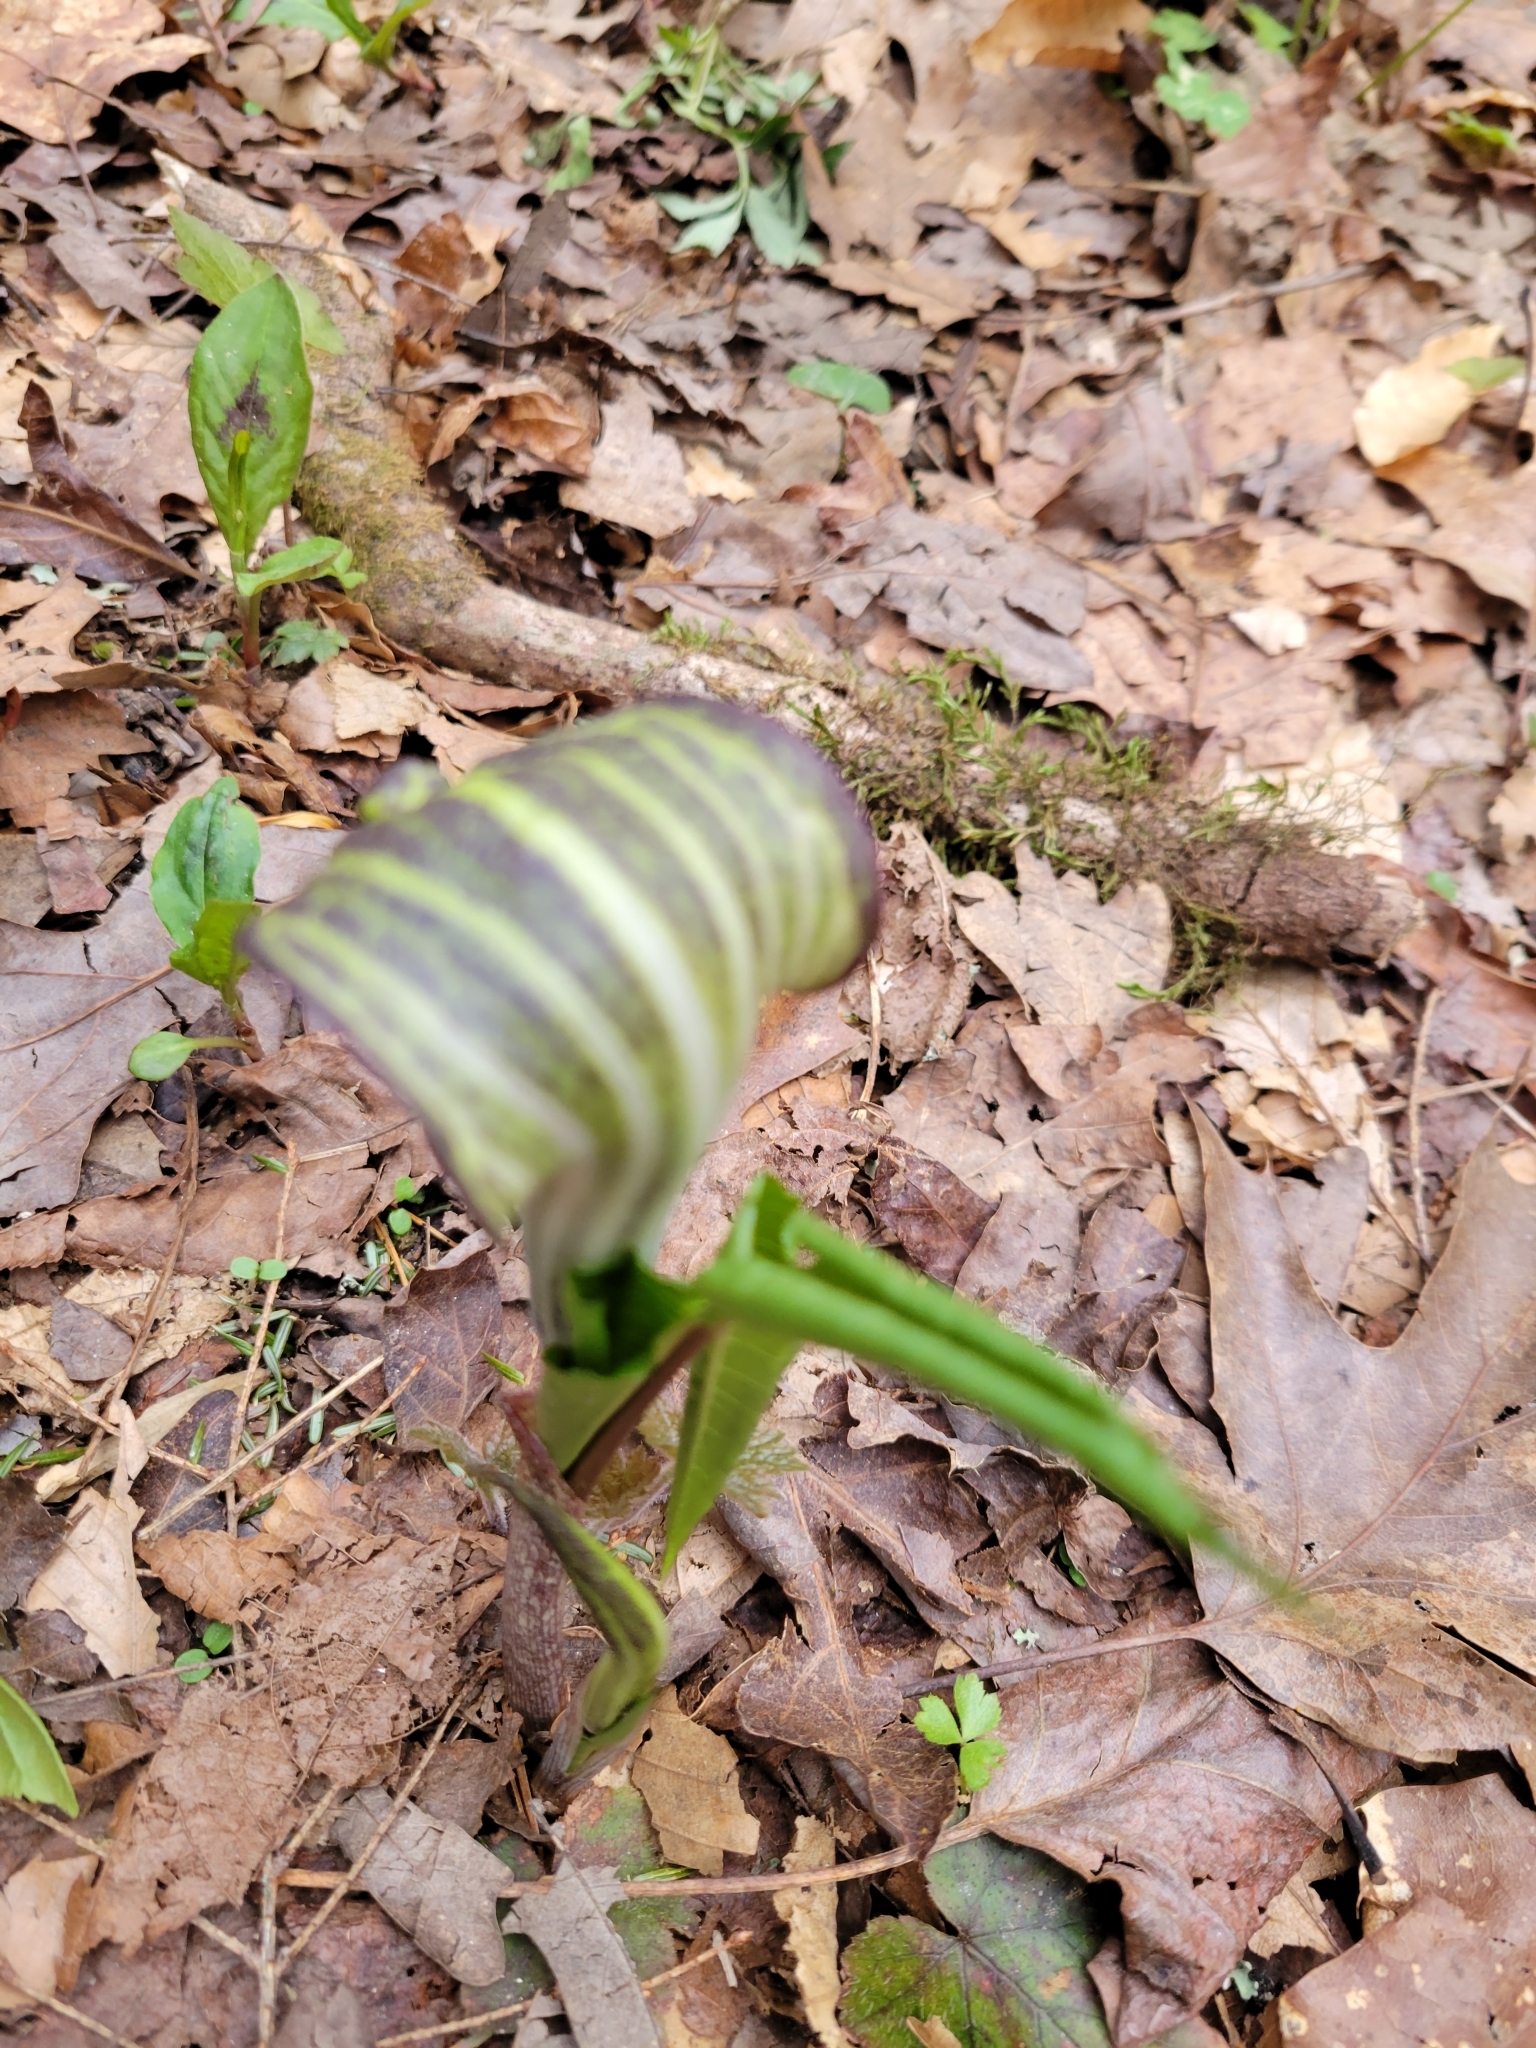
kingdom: Plantae
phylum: Tracheophyta
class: Liliopsida
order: Alismatales
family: Araceae
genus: Arisaema
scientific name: Arisaema triphyllum
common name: Jack-in-the-pulpit
